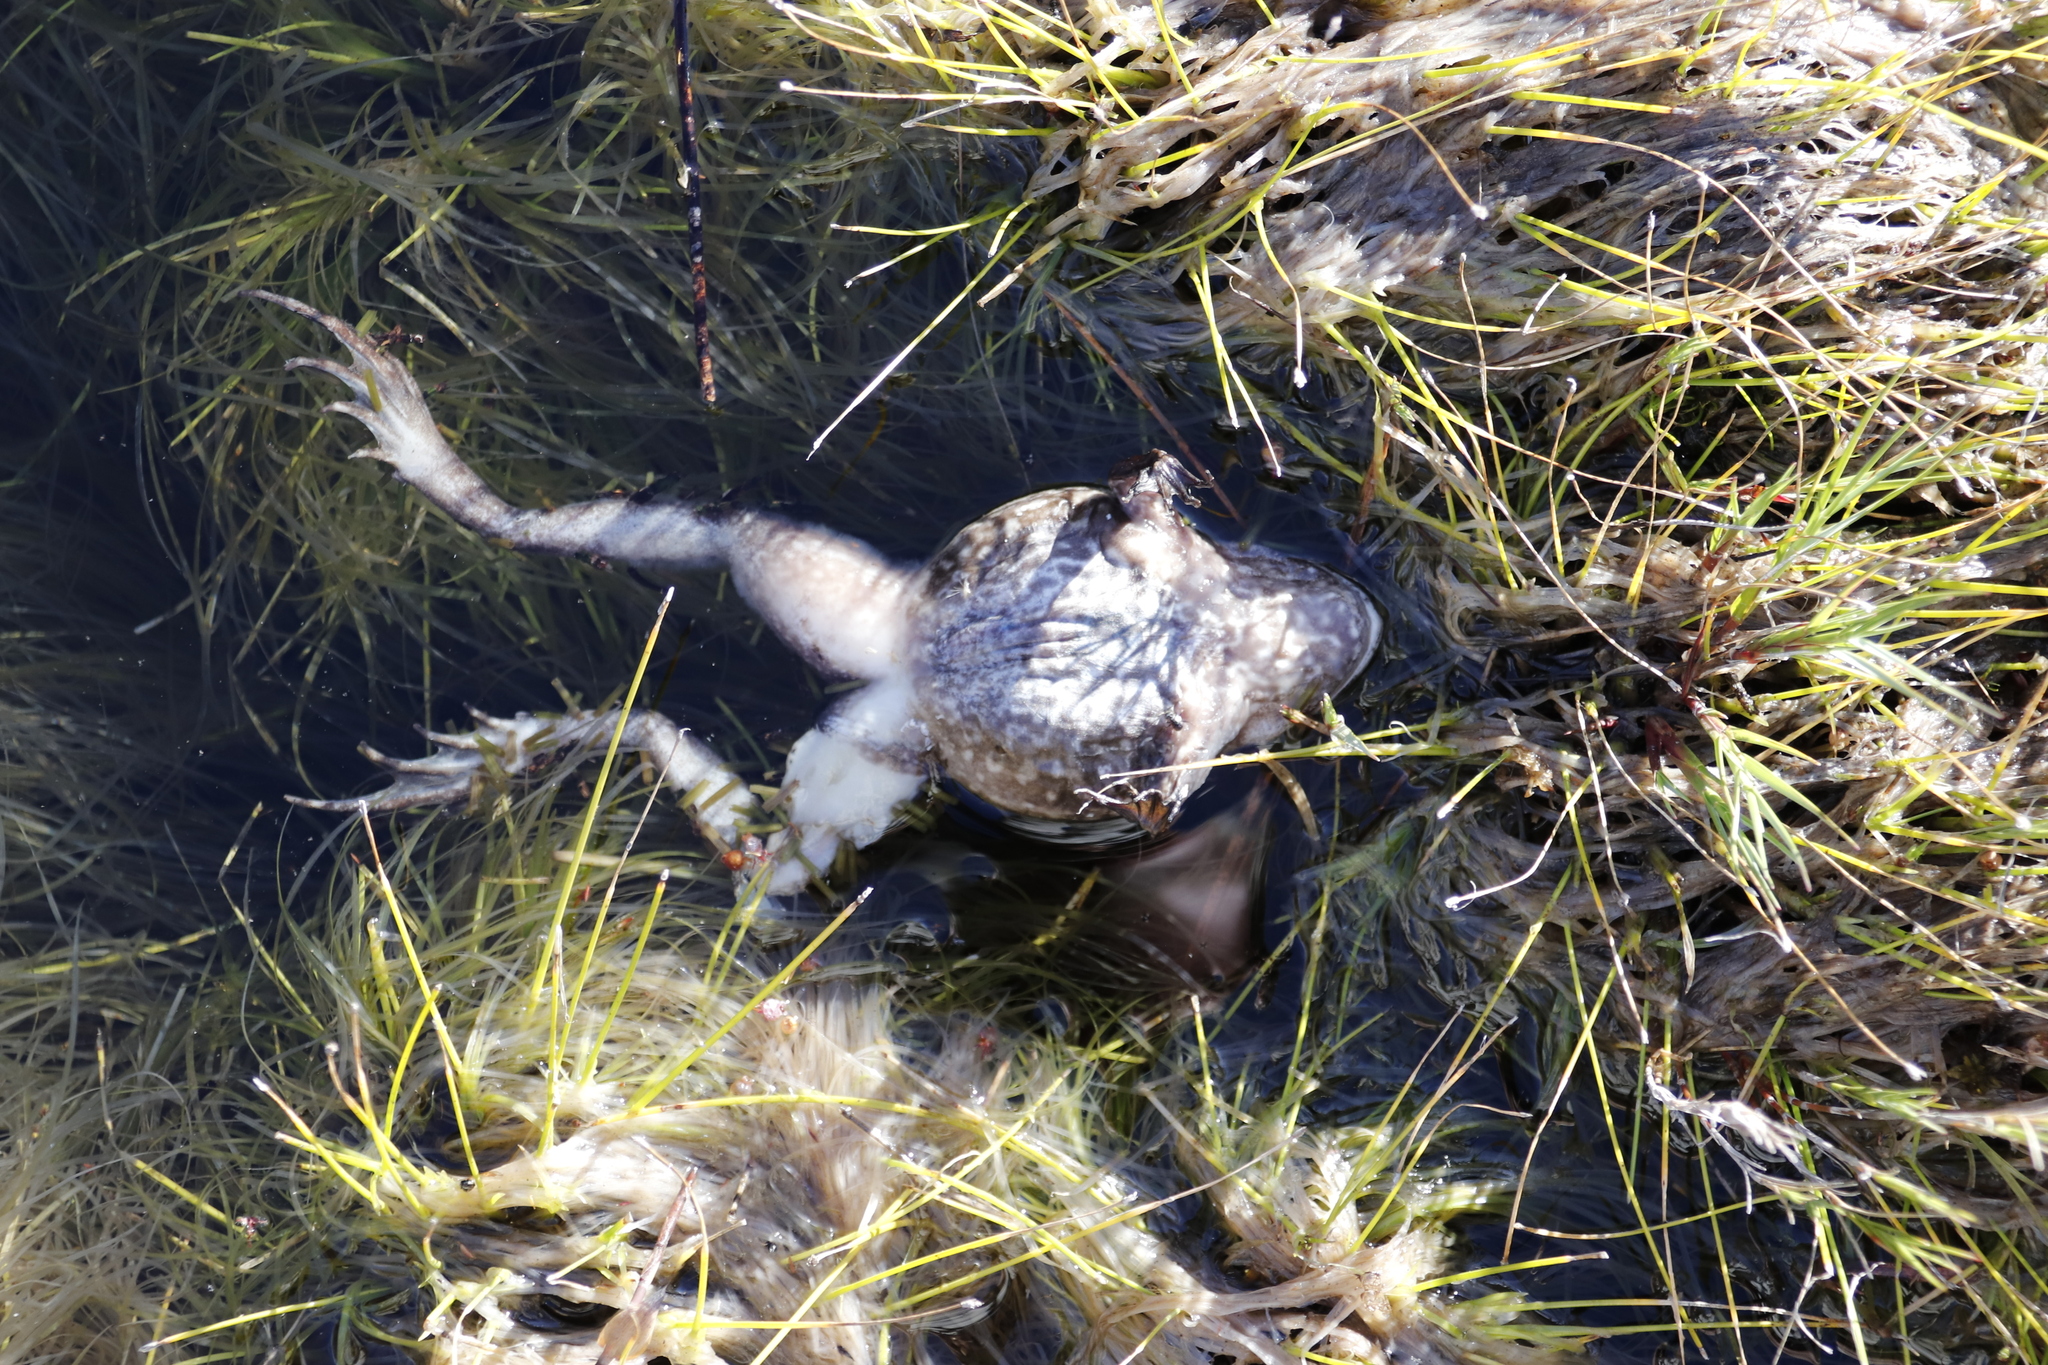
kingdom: Animalia
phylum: Chordata
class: Amphibia
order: Anura
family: Pyxicephalidae
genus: Amietia
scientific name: Amietia fuscigula
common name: Cape rana
